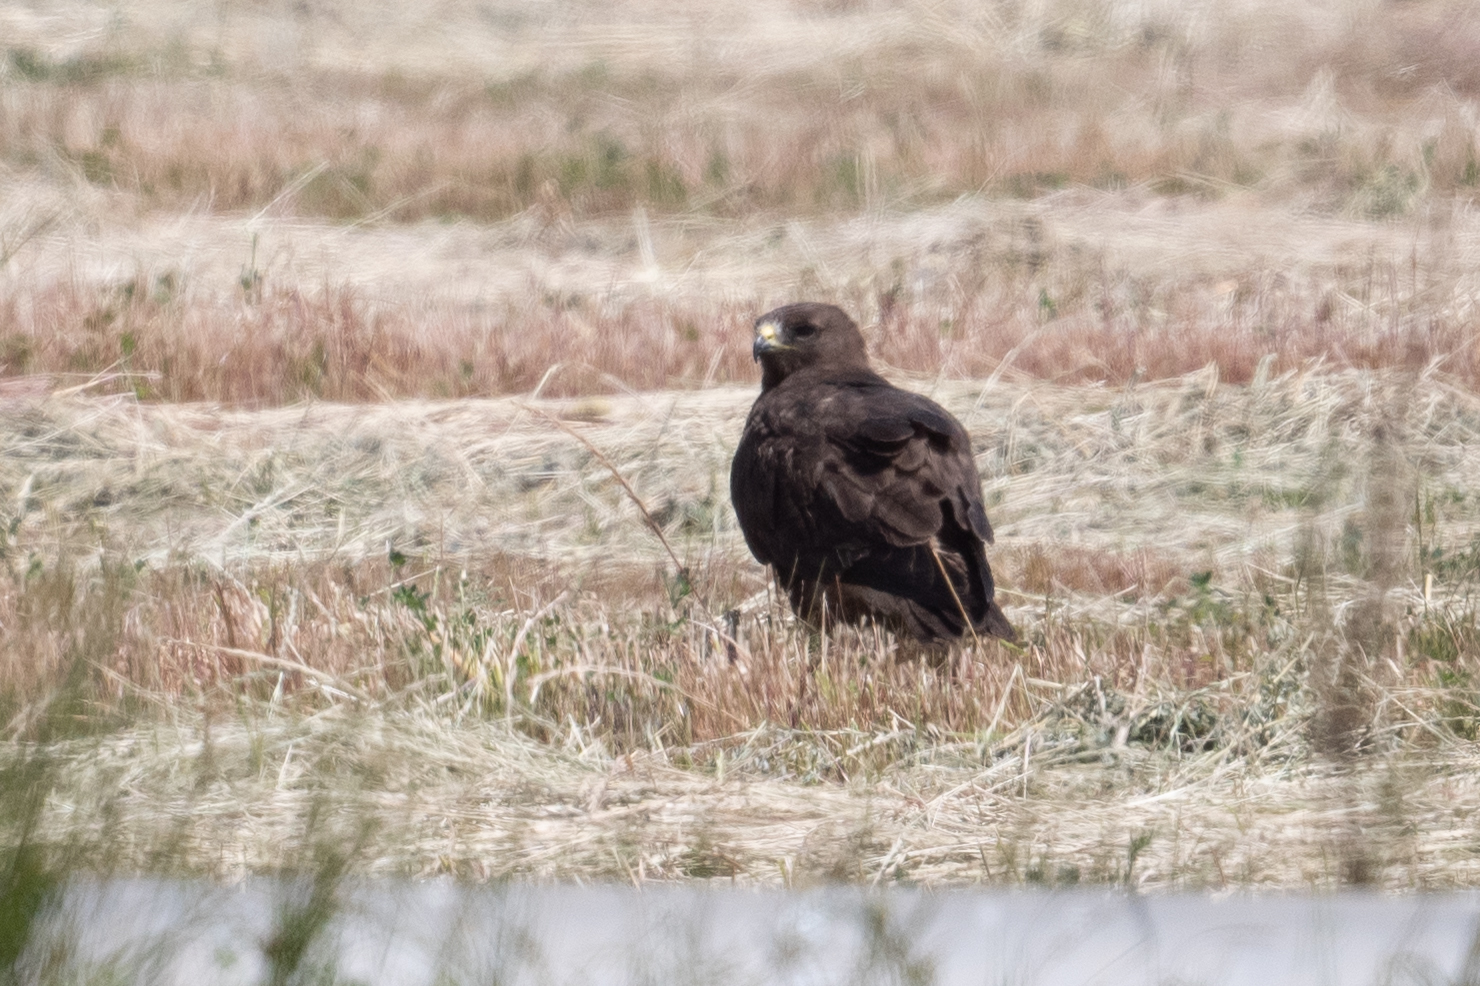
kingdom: Animalia
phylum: Chordata
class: Aves
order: Accipitriformes
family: Accipitridae
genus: Buteo
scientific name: Buteo swainsoni
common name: Swainson's hawk
